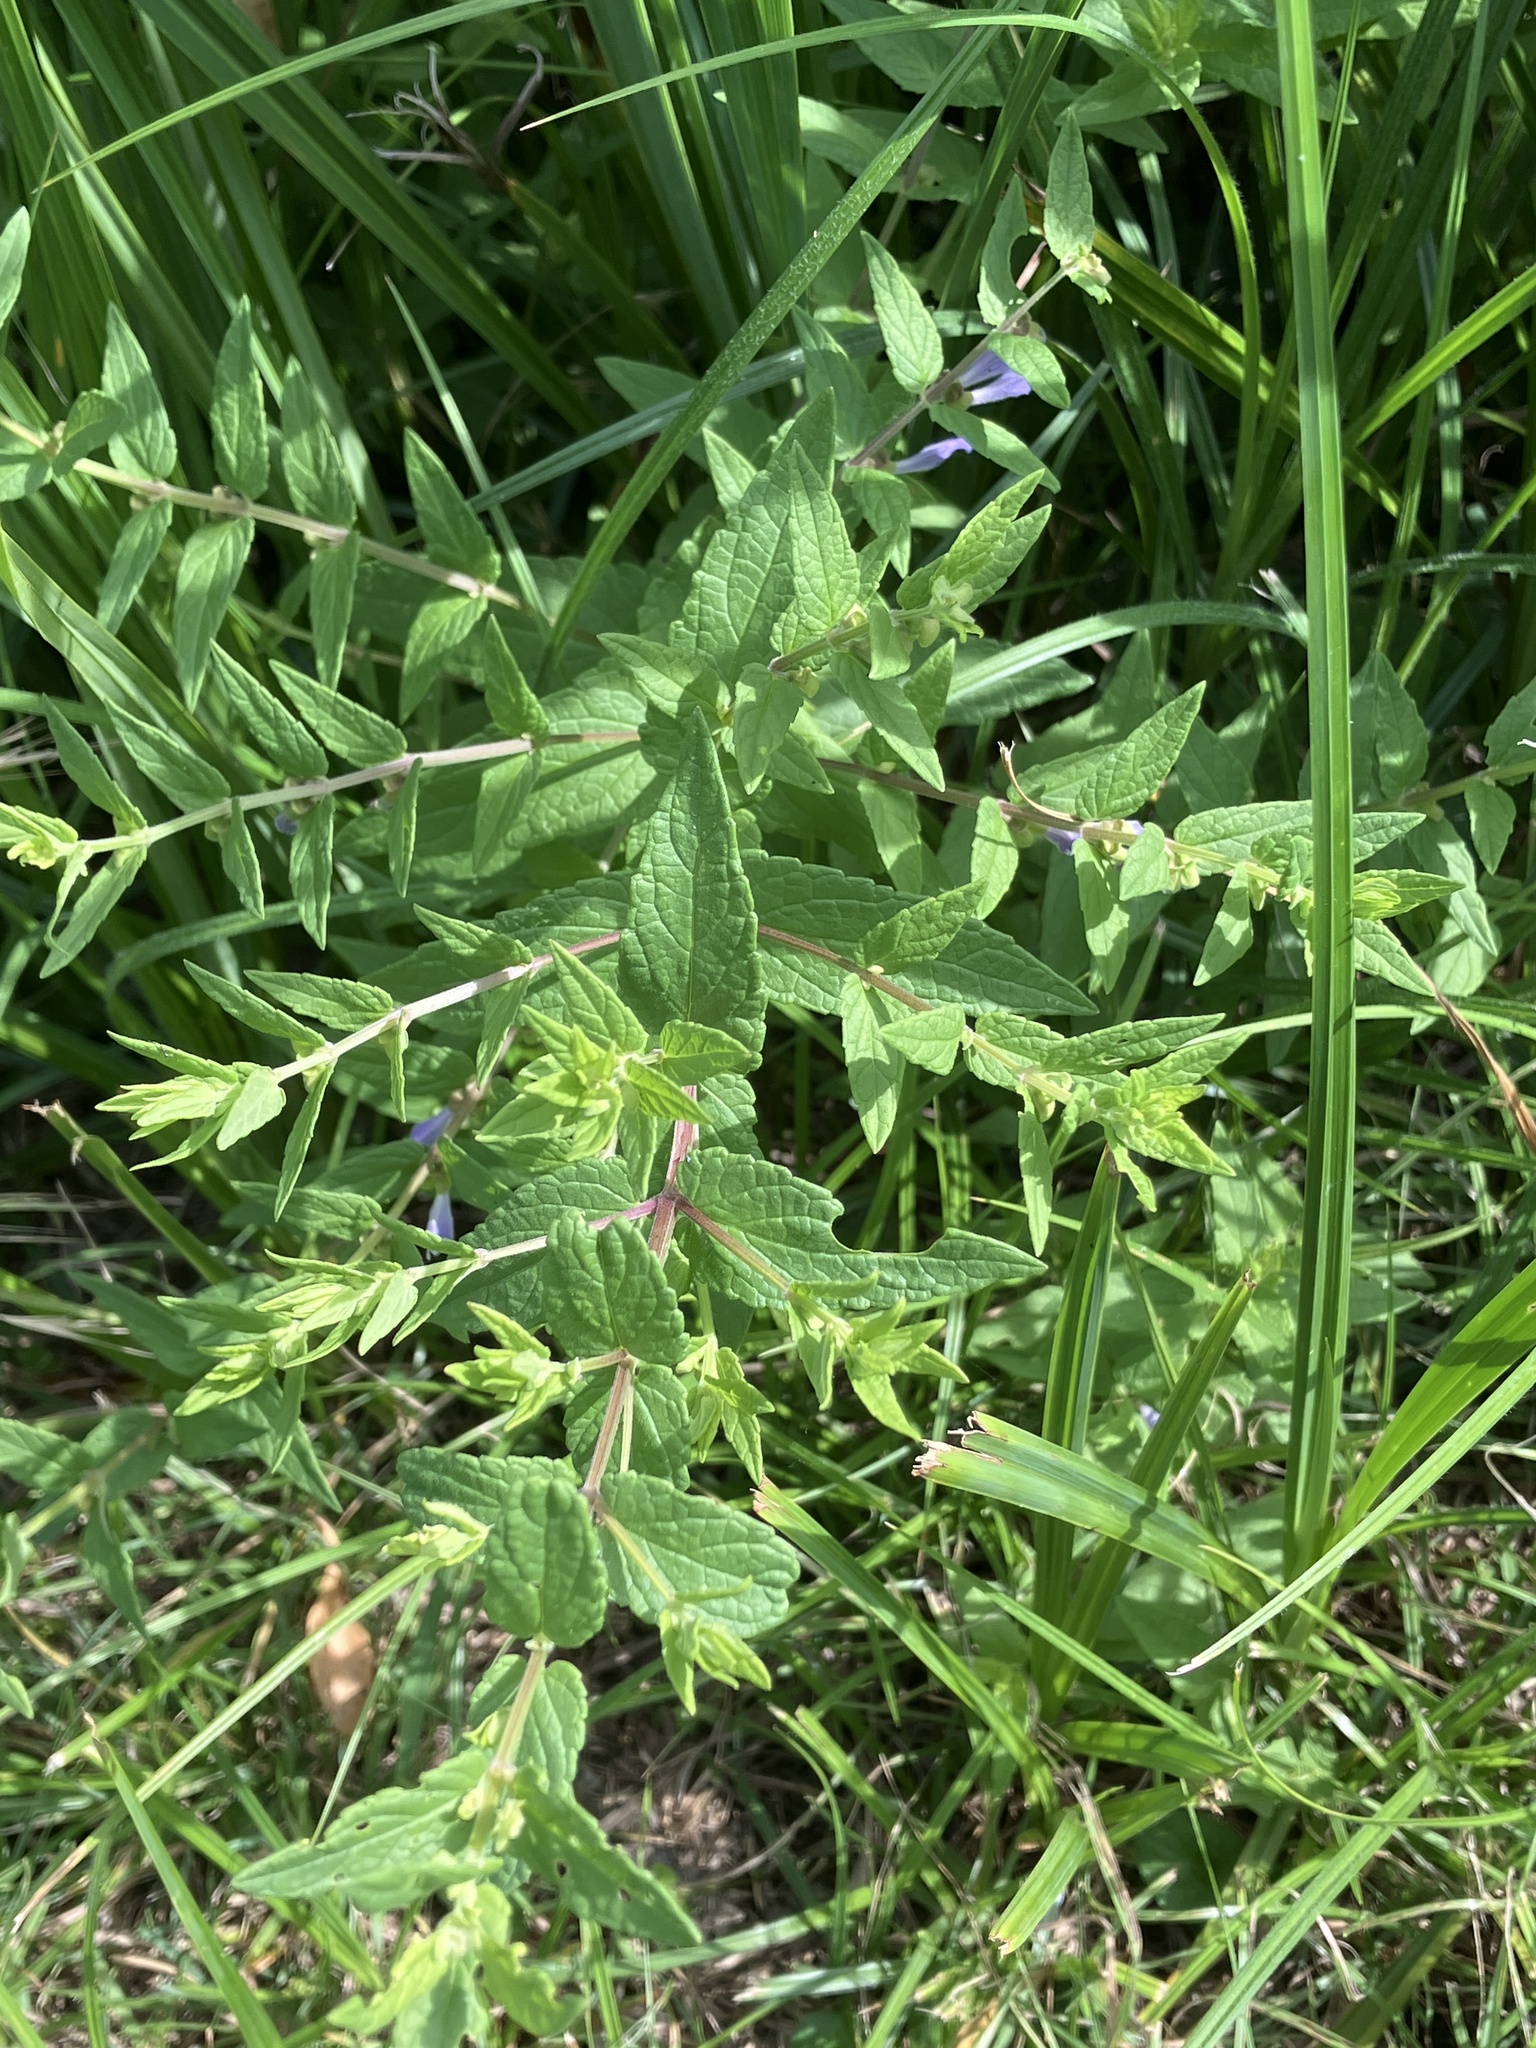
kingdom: Plantae
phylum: Tracheophyta
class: Magnoliopsida
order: Lamiales
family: Lamiaceae
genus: Scutellaria
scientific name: Scutellaria galericulata
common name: Skullcap
